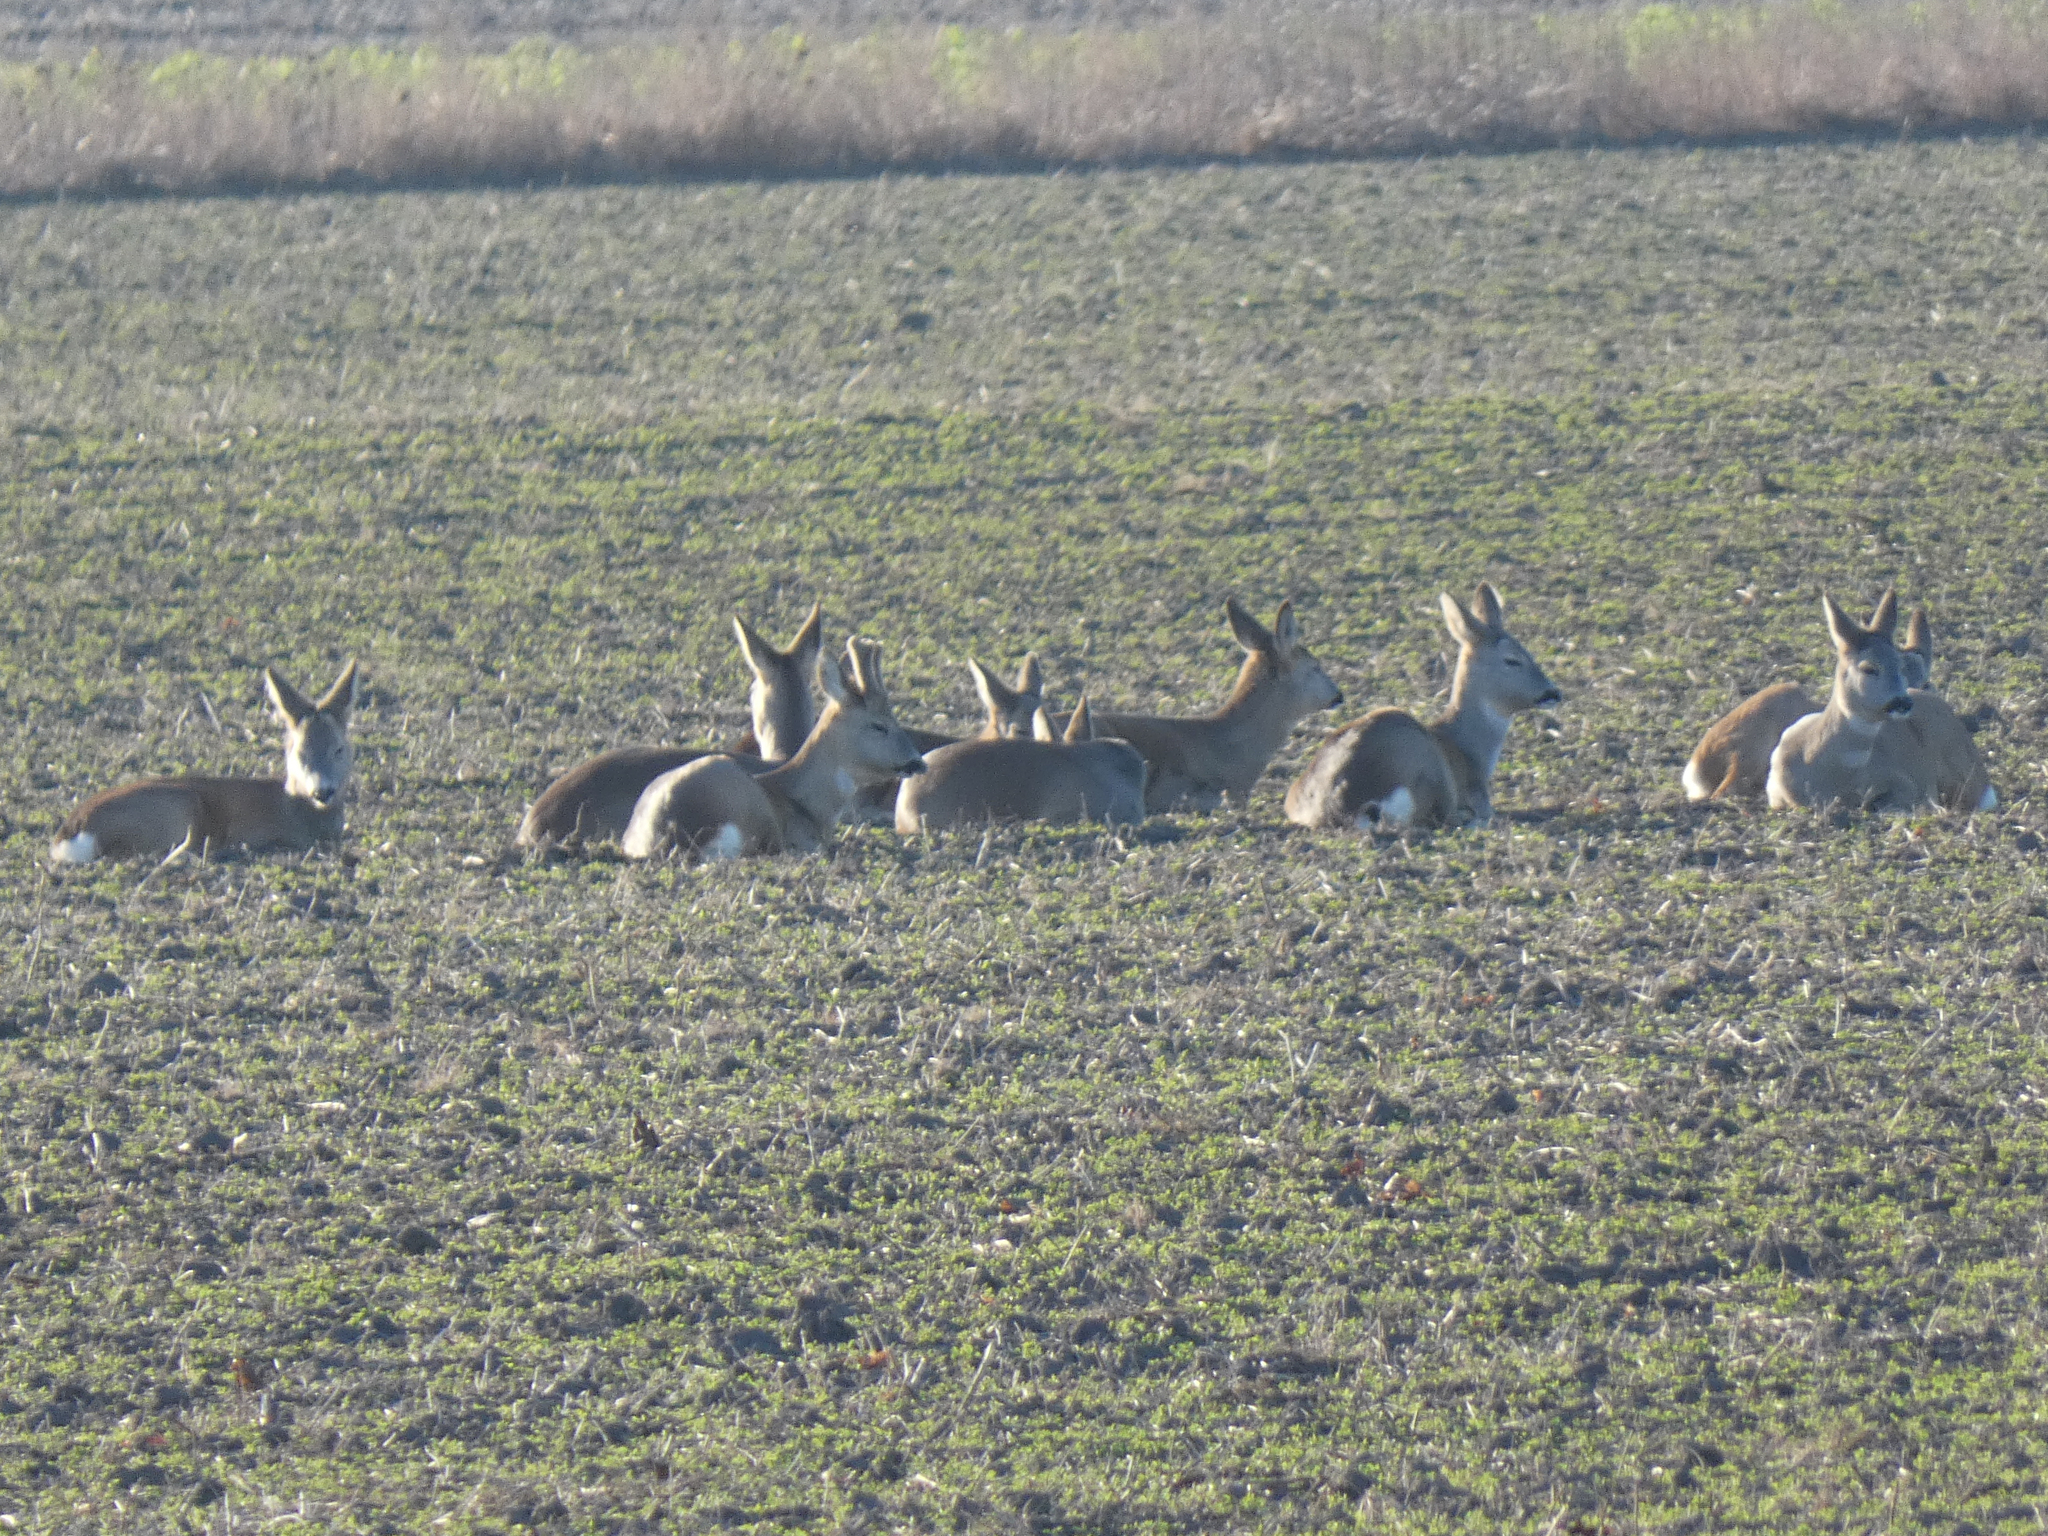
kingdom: Animalia
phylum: Chordata
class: Mammalia
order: Artiodactyla
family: Cervidae
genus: Capreolus
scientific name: Capreolus capreolus
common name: Western roe deer
